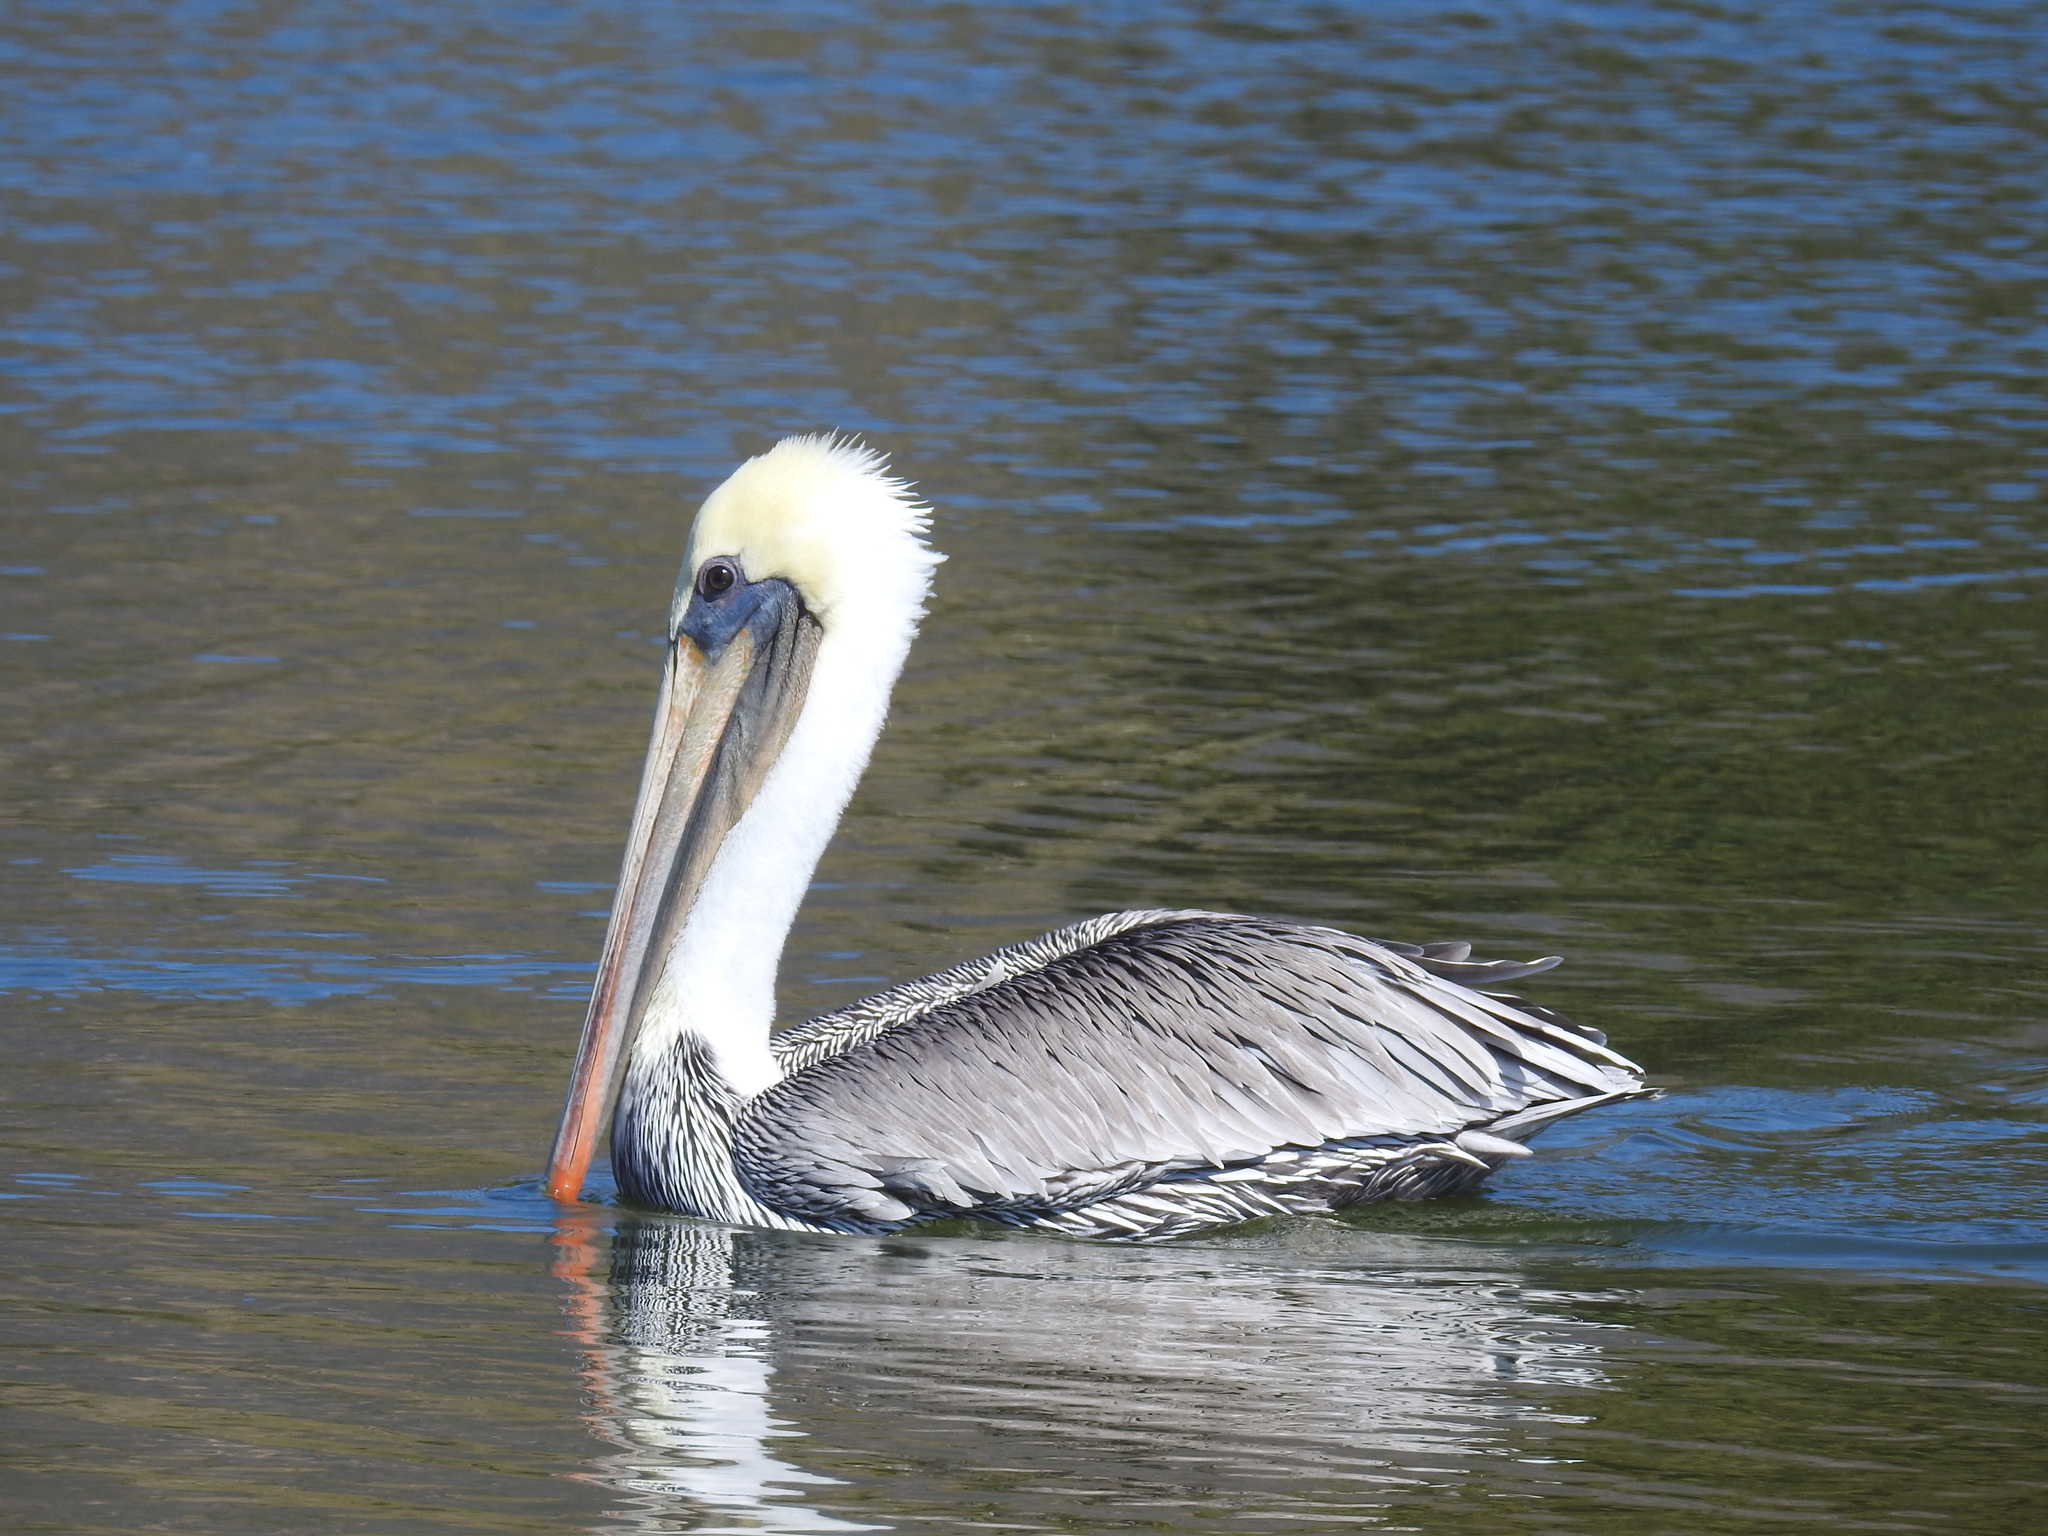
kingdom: Animalia
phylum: Chordata
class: Aves
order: Pelecaniformes
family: Pelecanidae
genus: Pelecanus
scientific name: Pelecanus occidentalis
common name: Brown pelican
